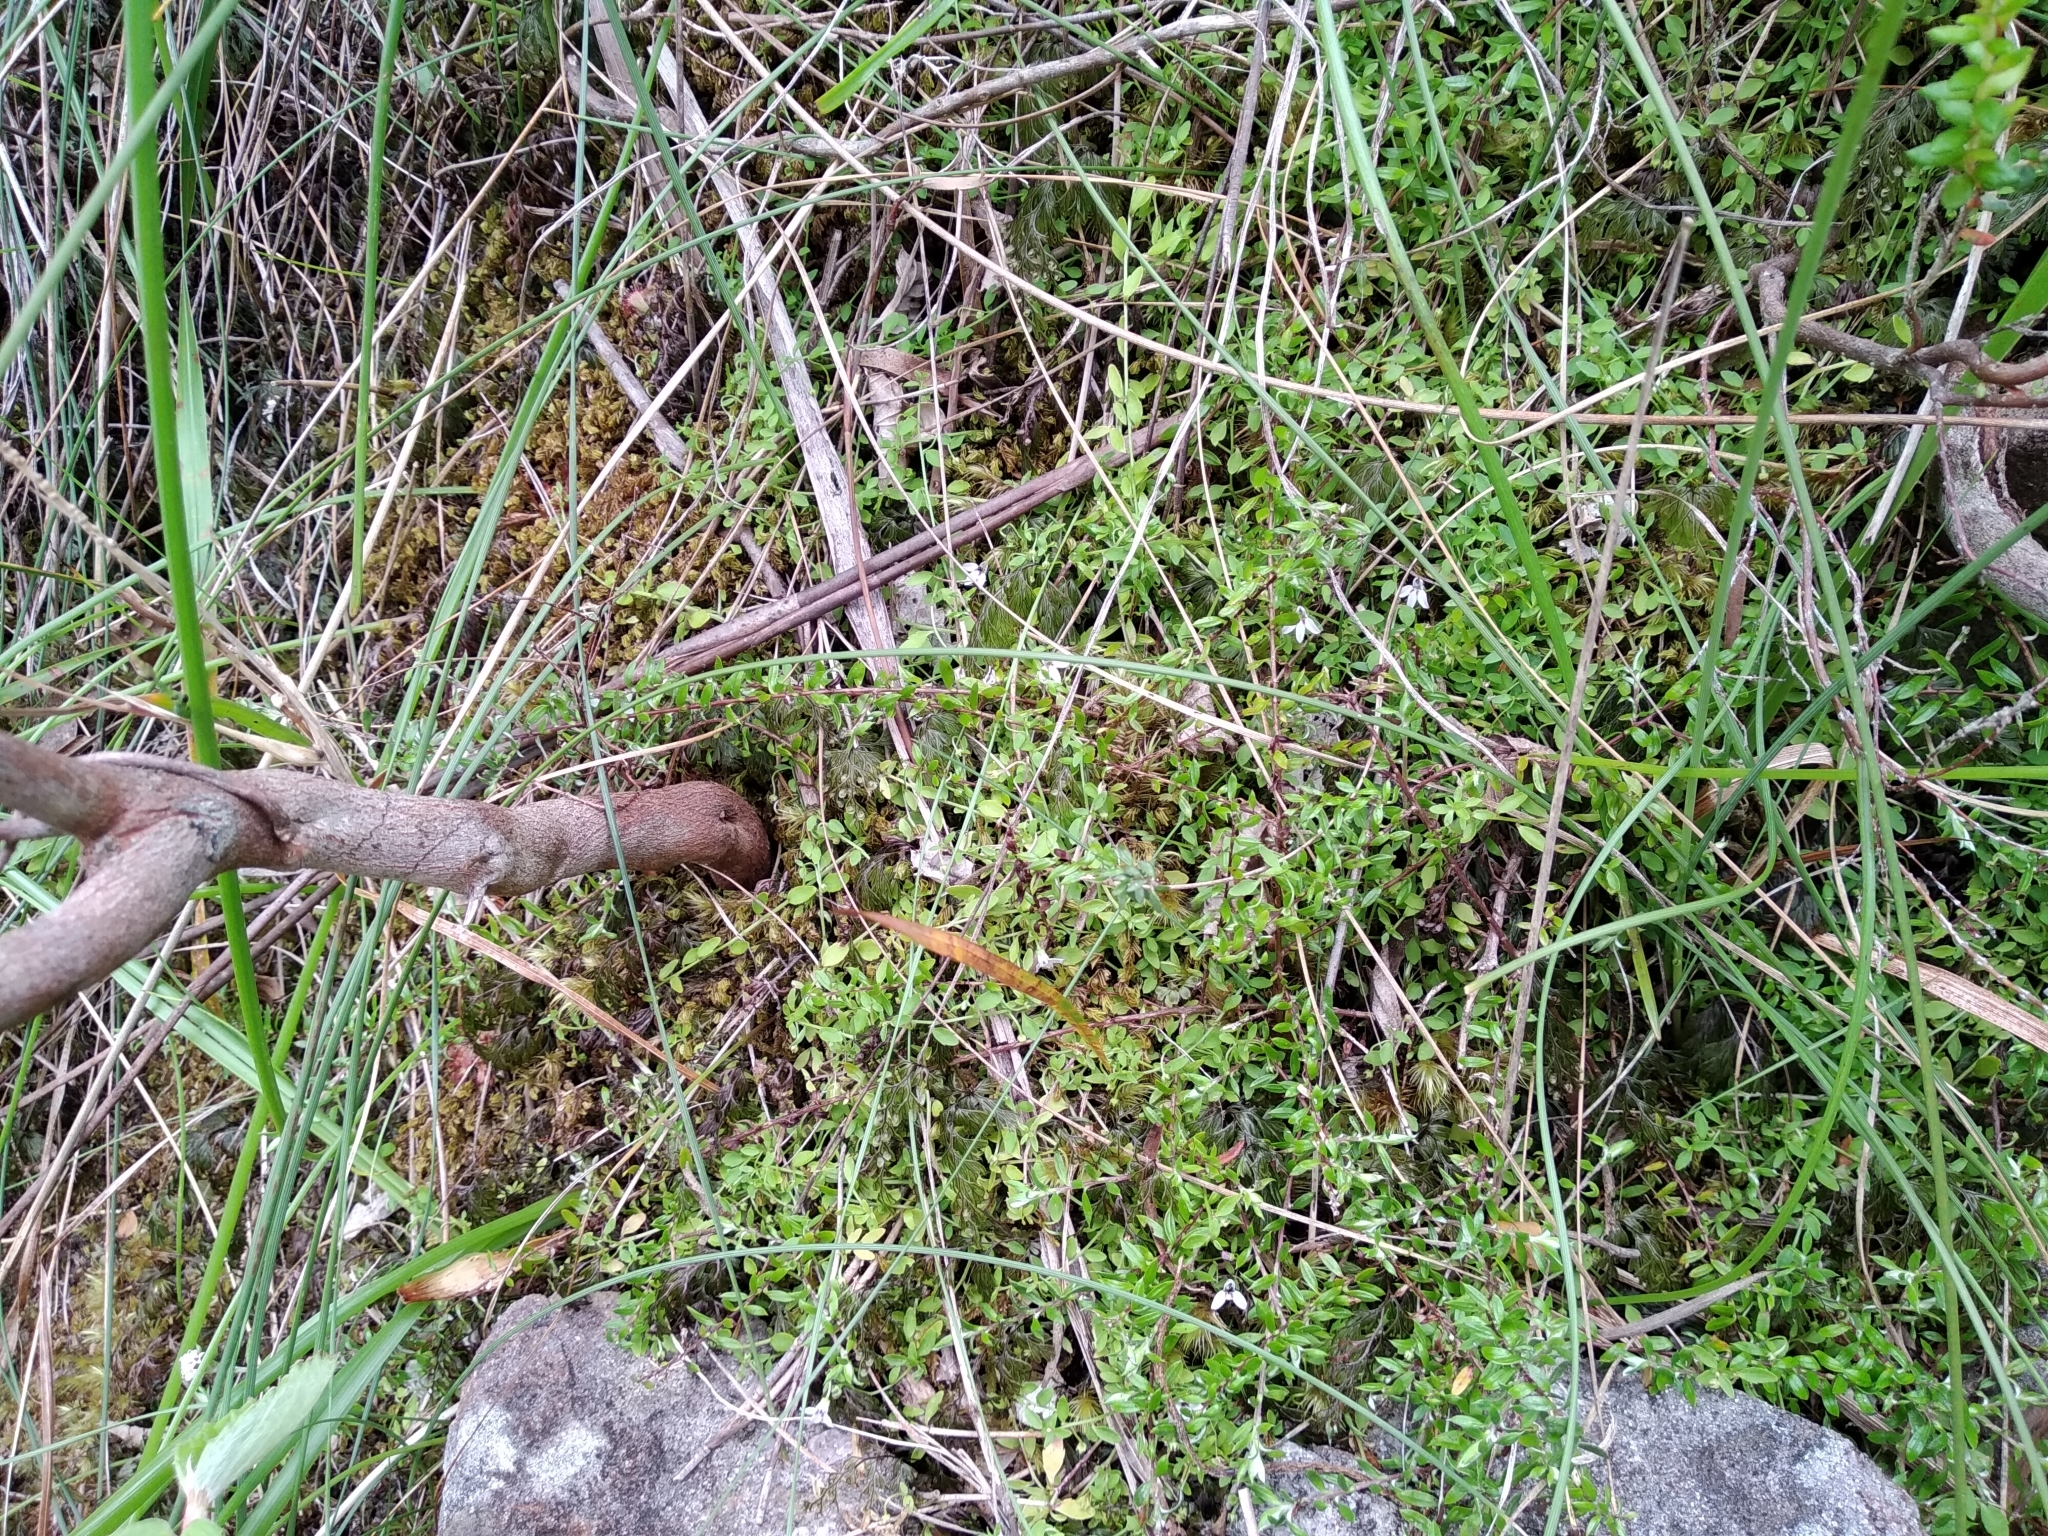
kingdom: Plantae
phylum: Tracheophyta
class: Magnoliopsida
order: Asterales
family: Campanulaceae
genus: Unigenes
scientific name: Unigenes humifusa
